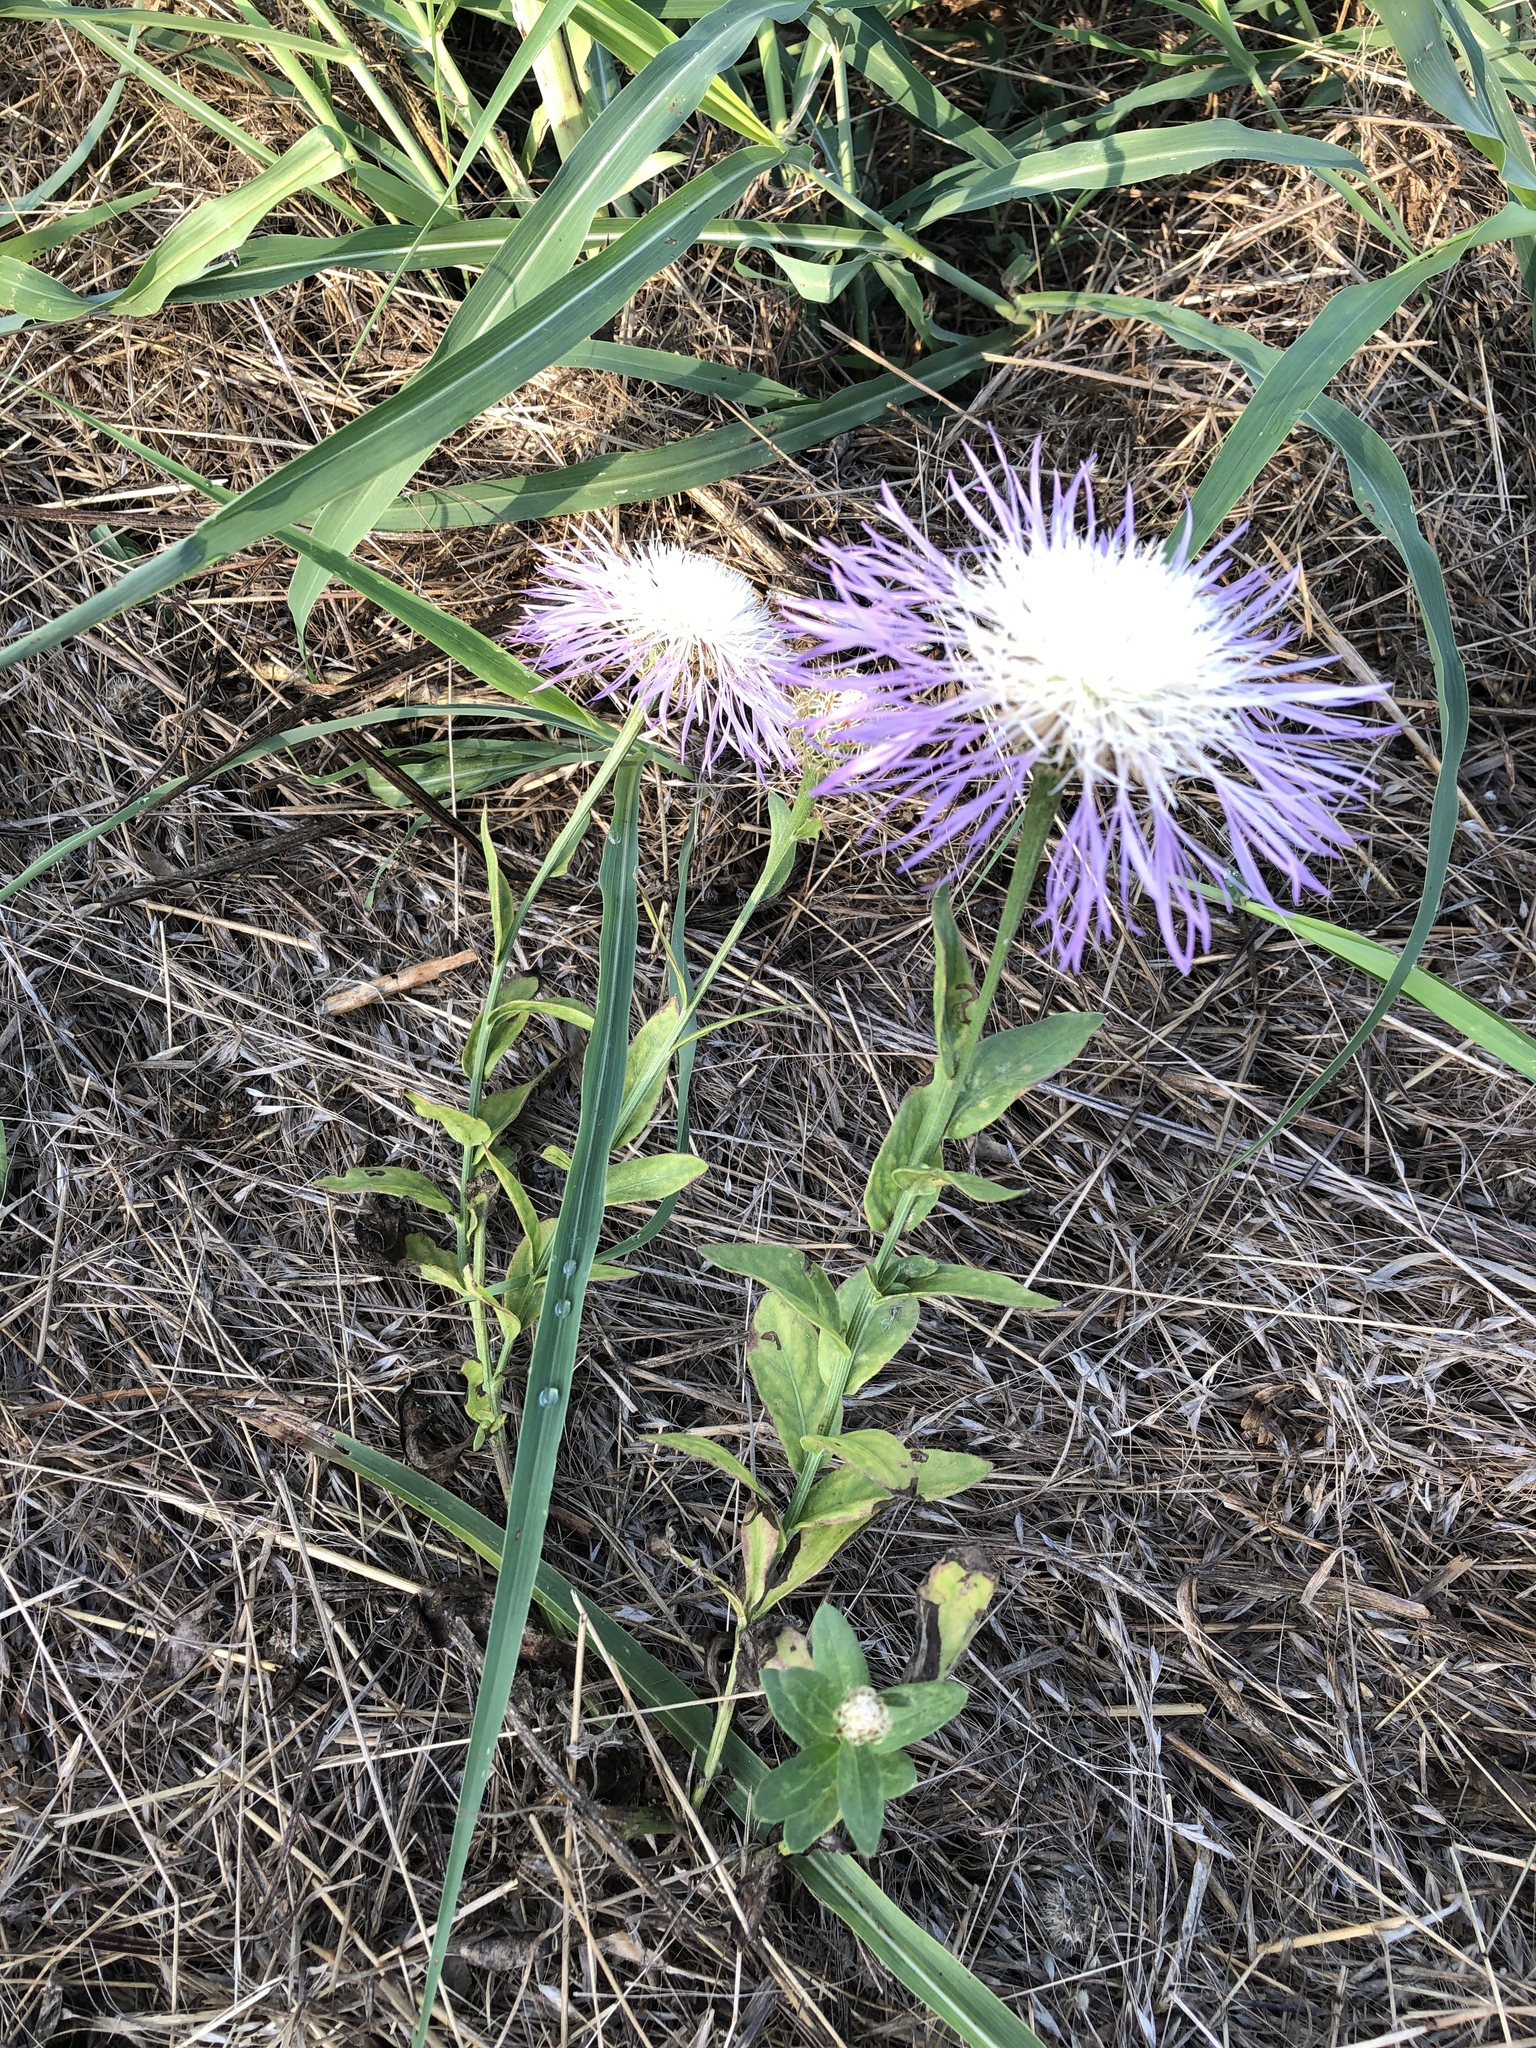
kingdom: Plantae
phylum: Tracheophyta
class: Magnoliopsida
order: Asterales
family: Asteraceae
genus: Plectocephalus
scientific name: Plectocephalus americanus
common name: American basket-flower
